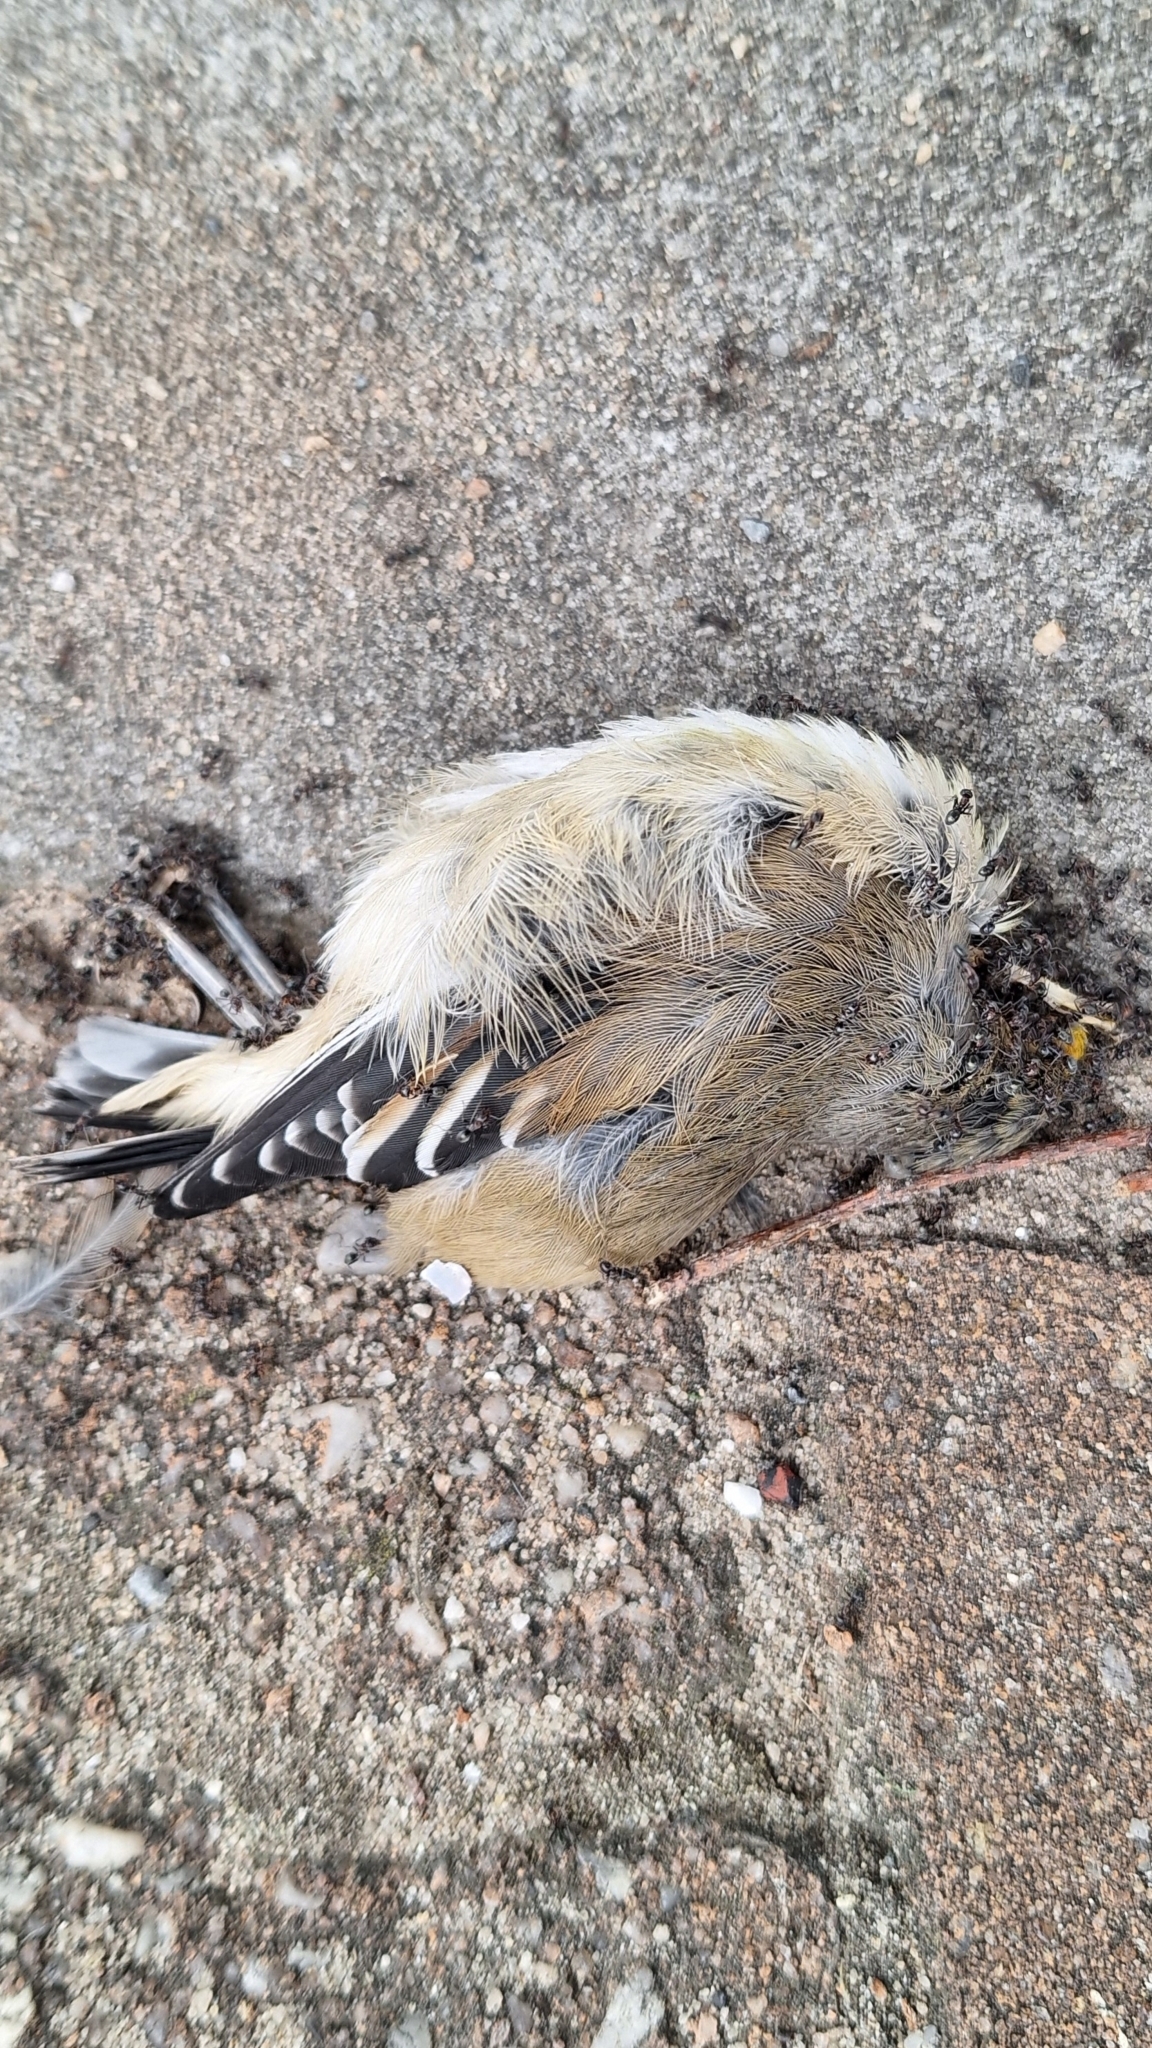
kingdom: Animalia
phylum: Chordata
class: Aves
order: Passeriformes
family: Pardalotidae
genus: Pardalotus
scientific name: Pardalotus striatus
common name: Striated pardalote
